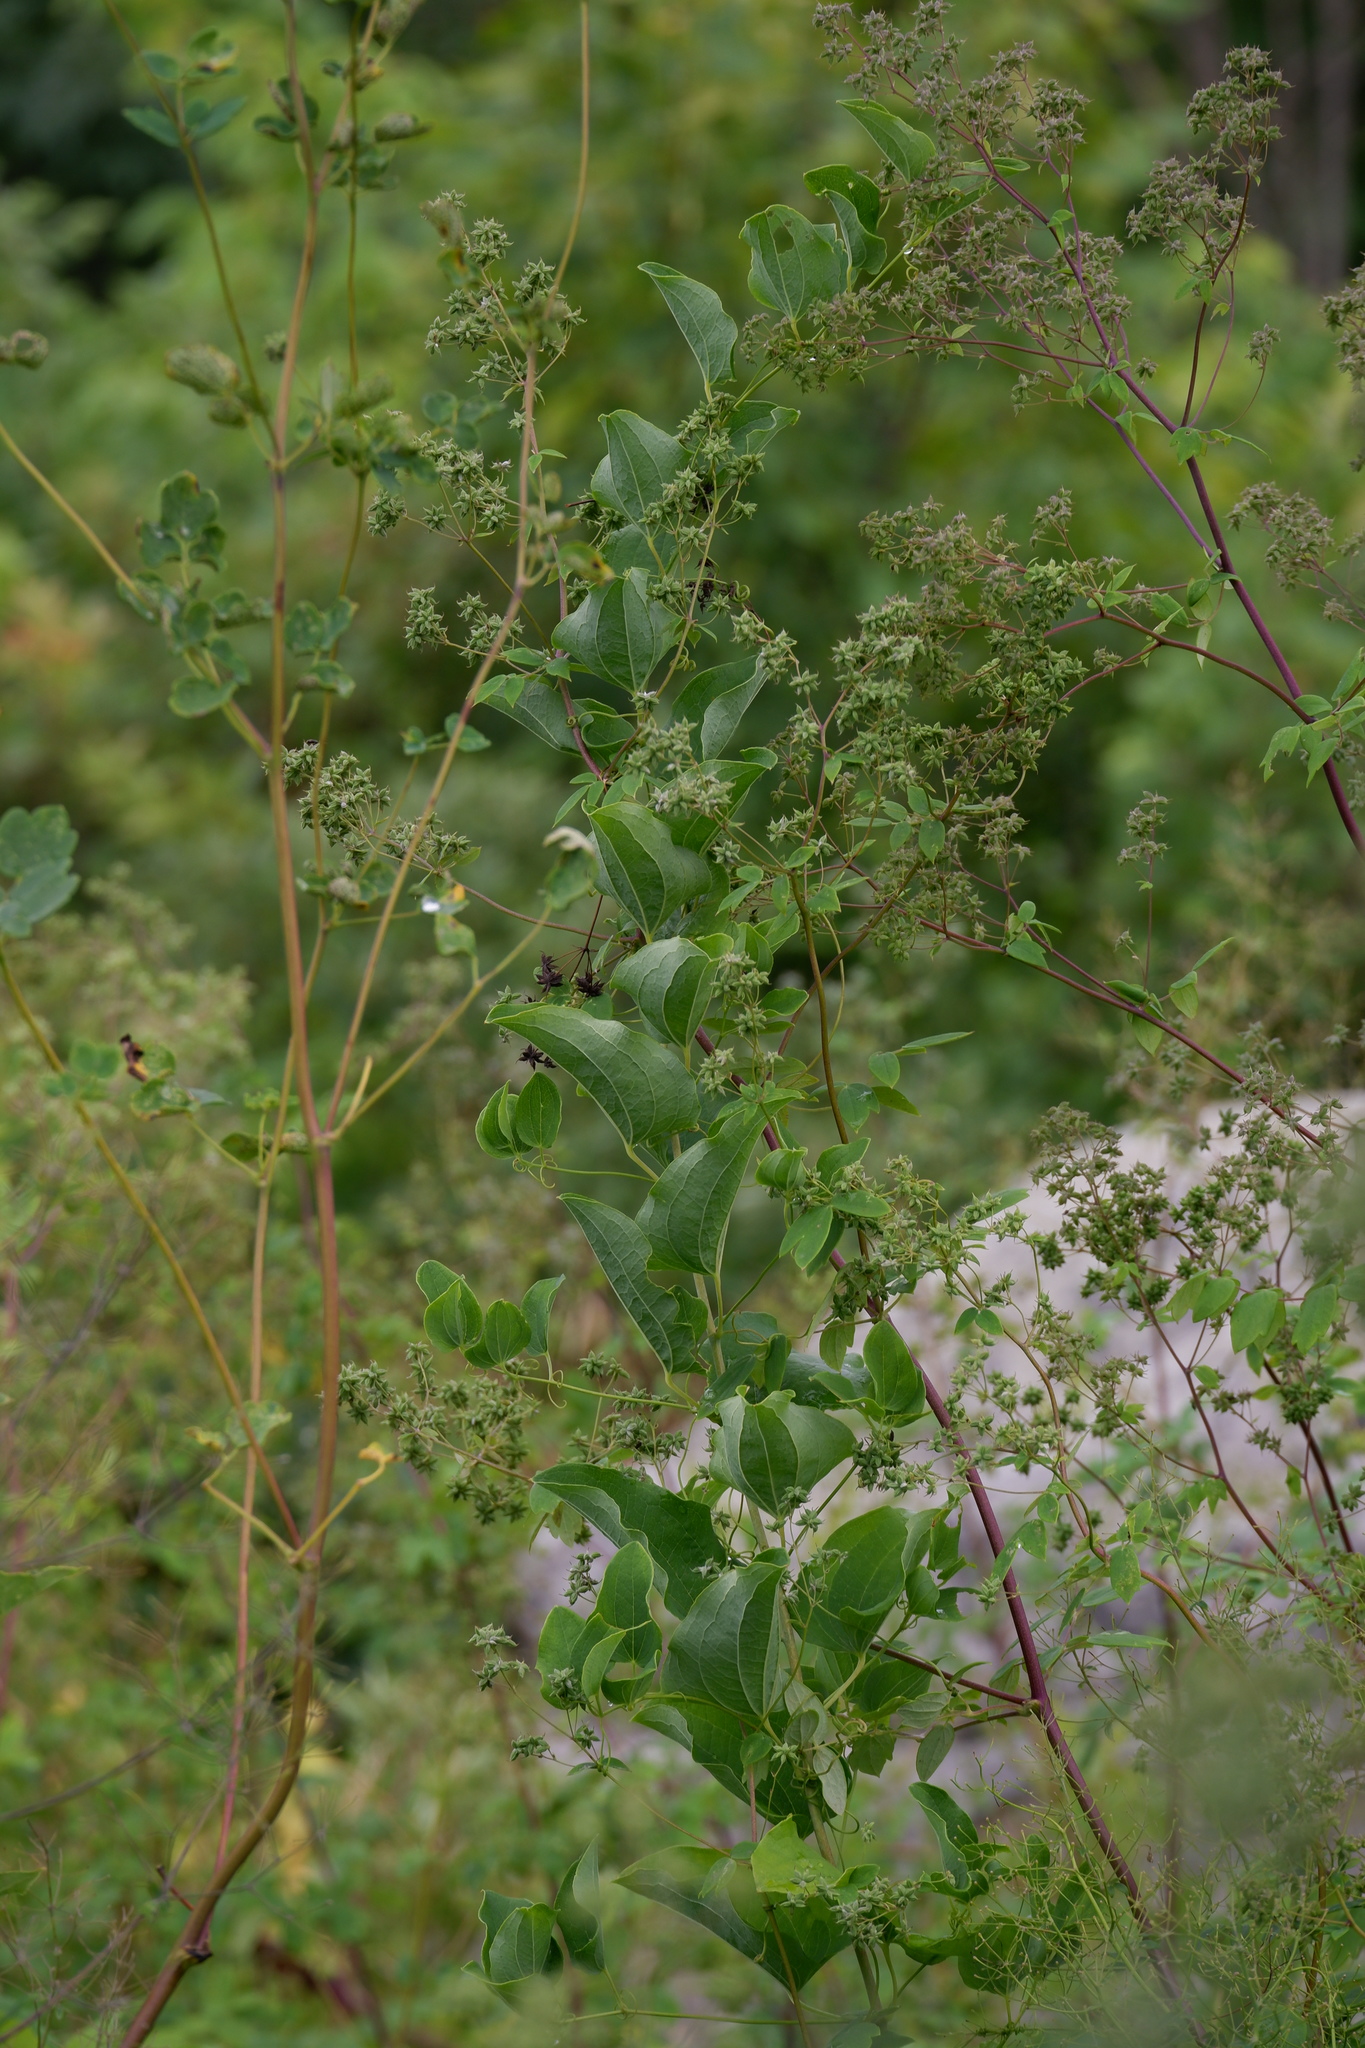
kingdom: Plantae
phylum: Tracheophyta
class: Liliopsida
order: Liliales
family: Smilacaceae
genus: Smilax
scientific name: Smilax herbacea
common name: Jacob's-ladder
